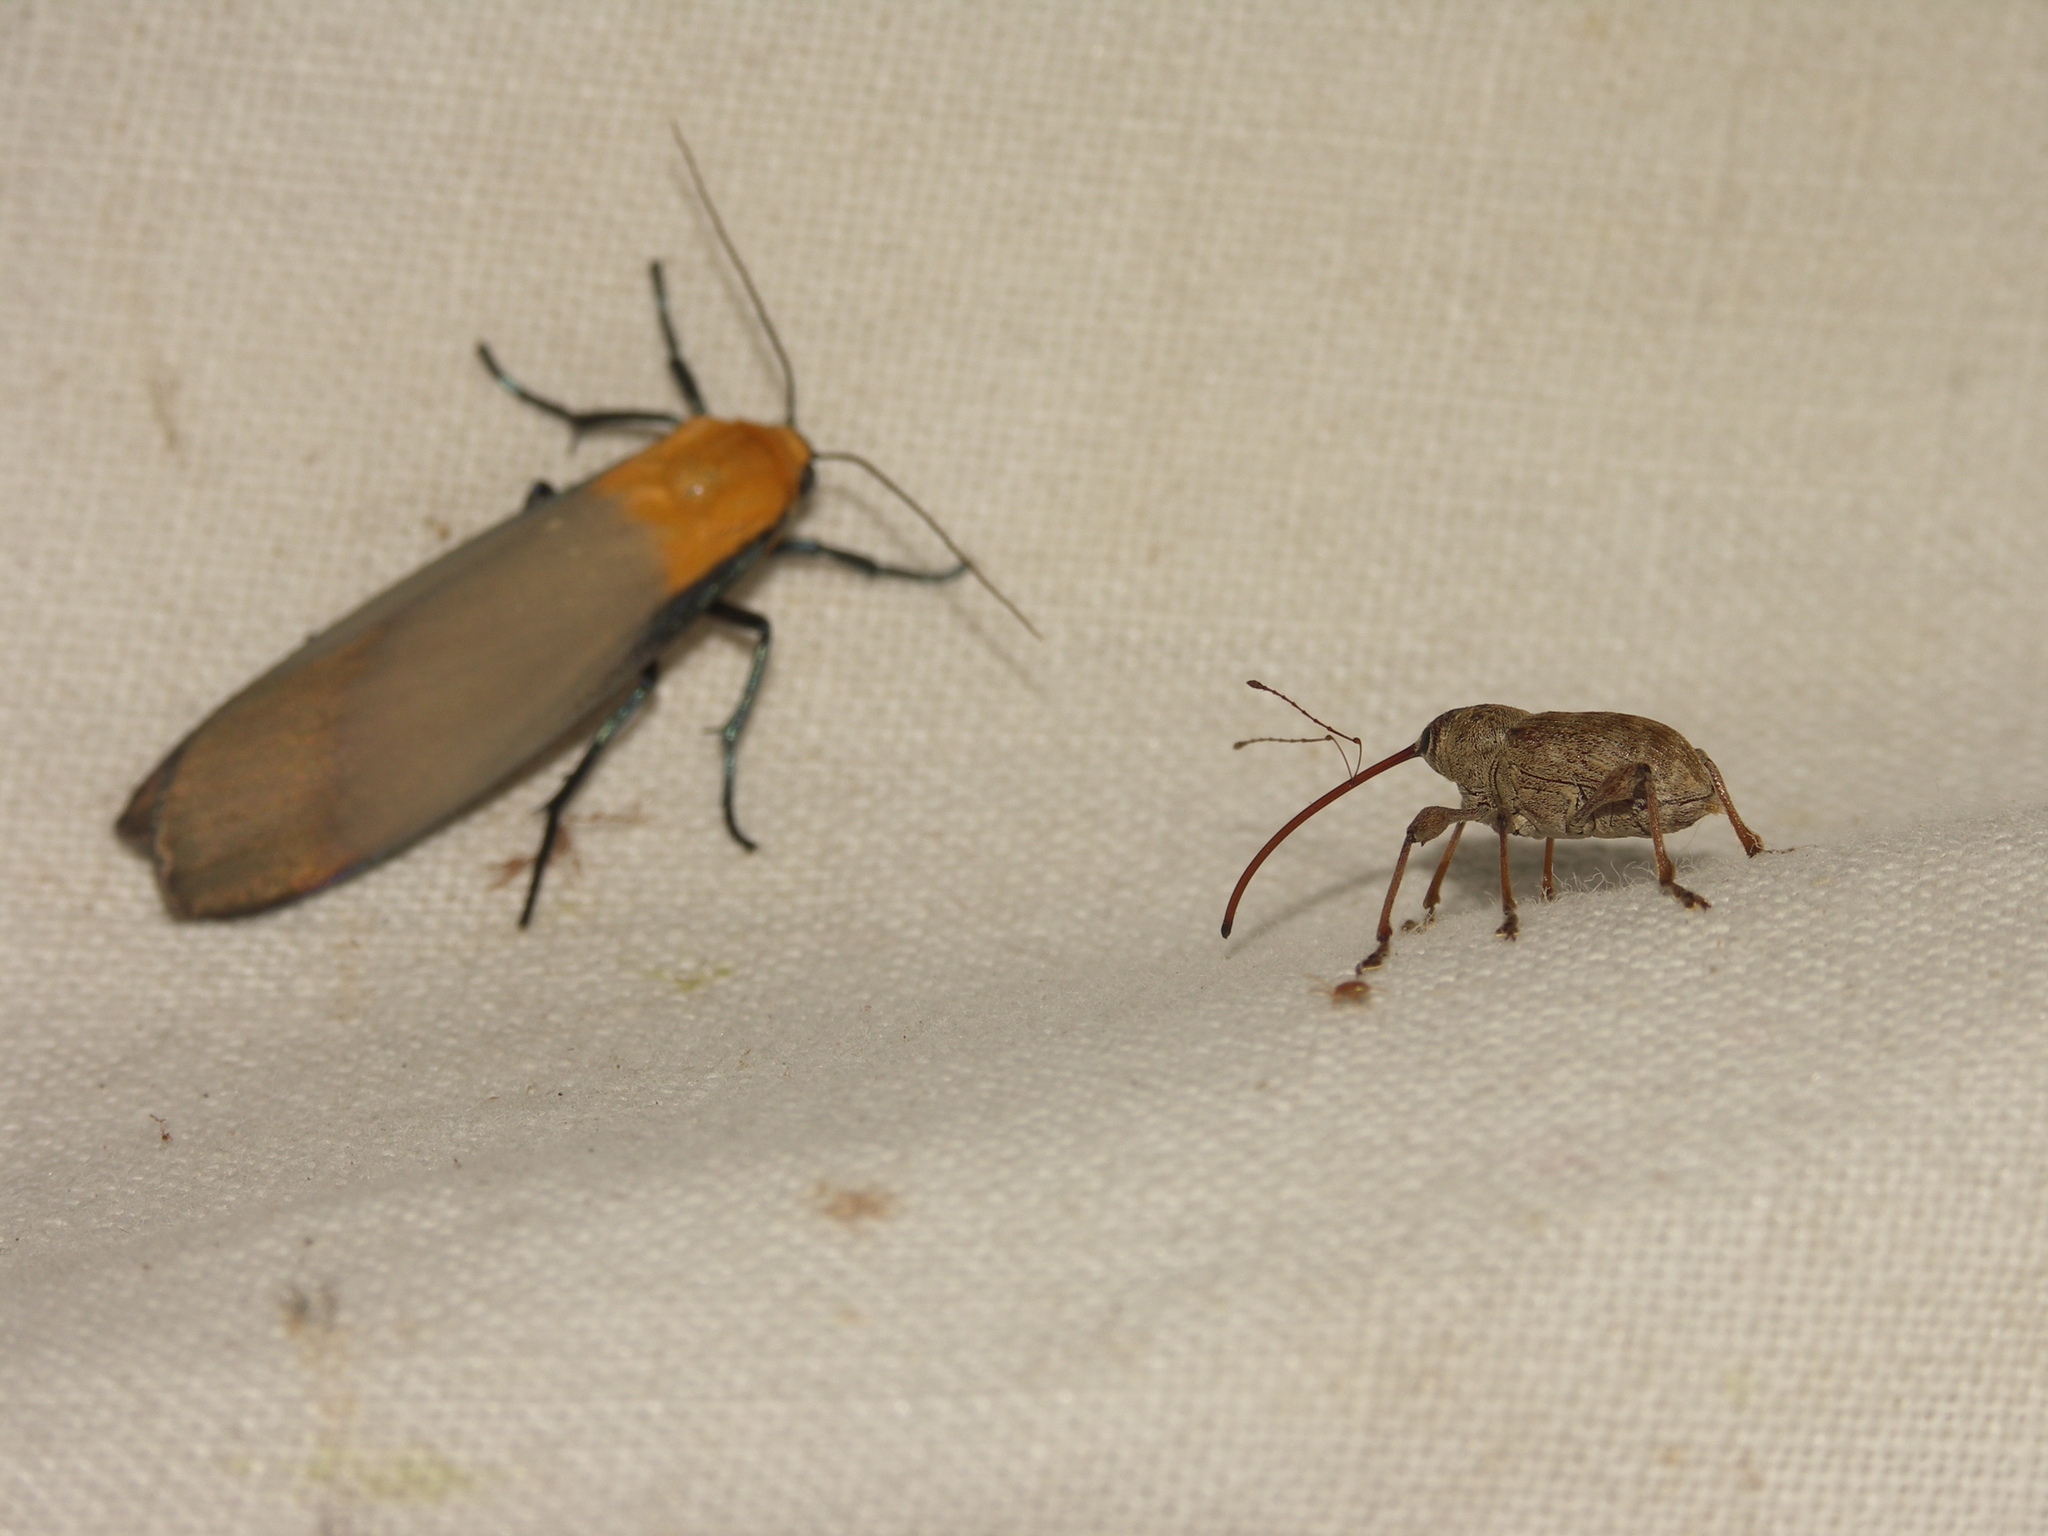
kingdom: Animalia
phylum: Arthropoda
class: Insecta
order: Coleoptera
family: Curculionidae
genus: Curculio
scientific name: Curculio elephas
